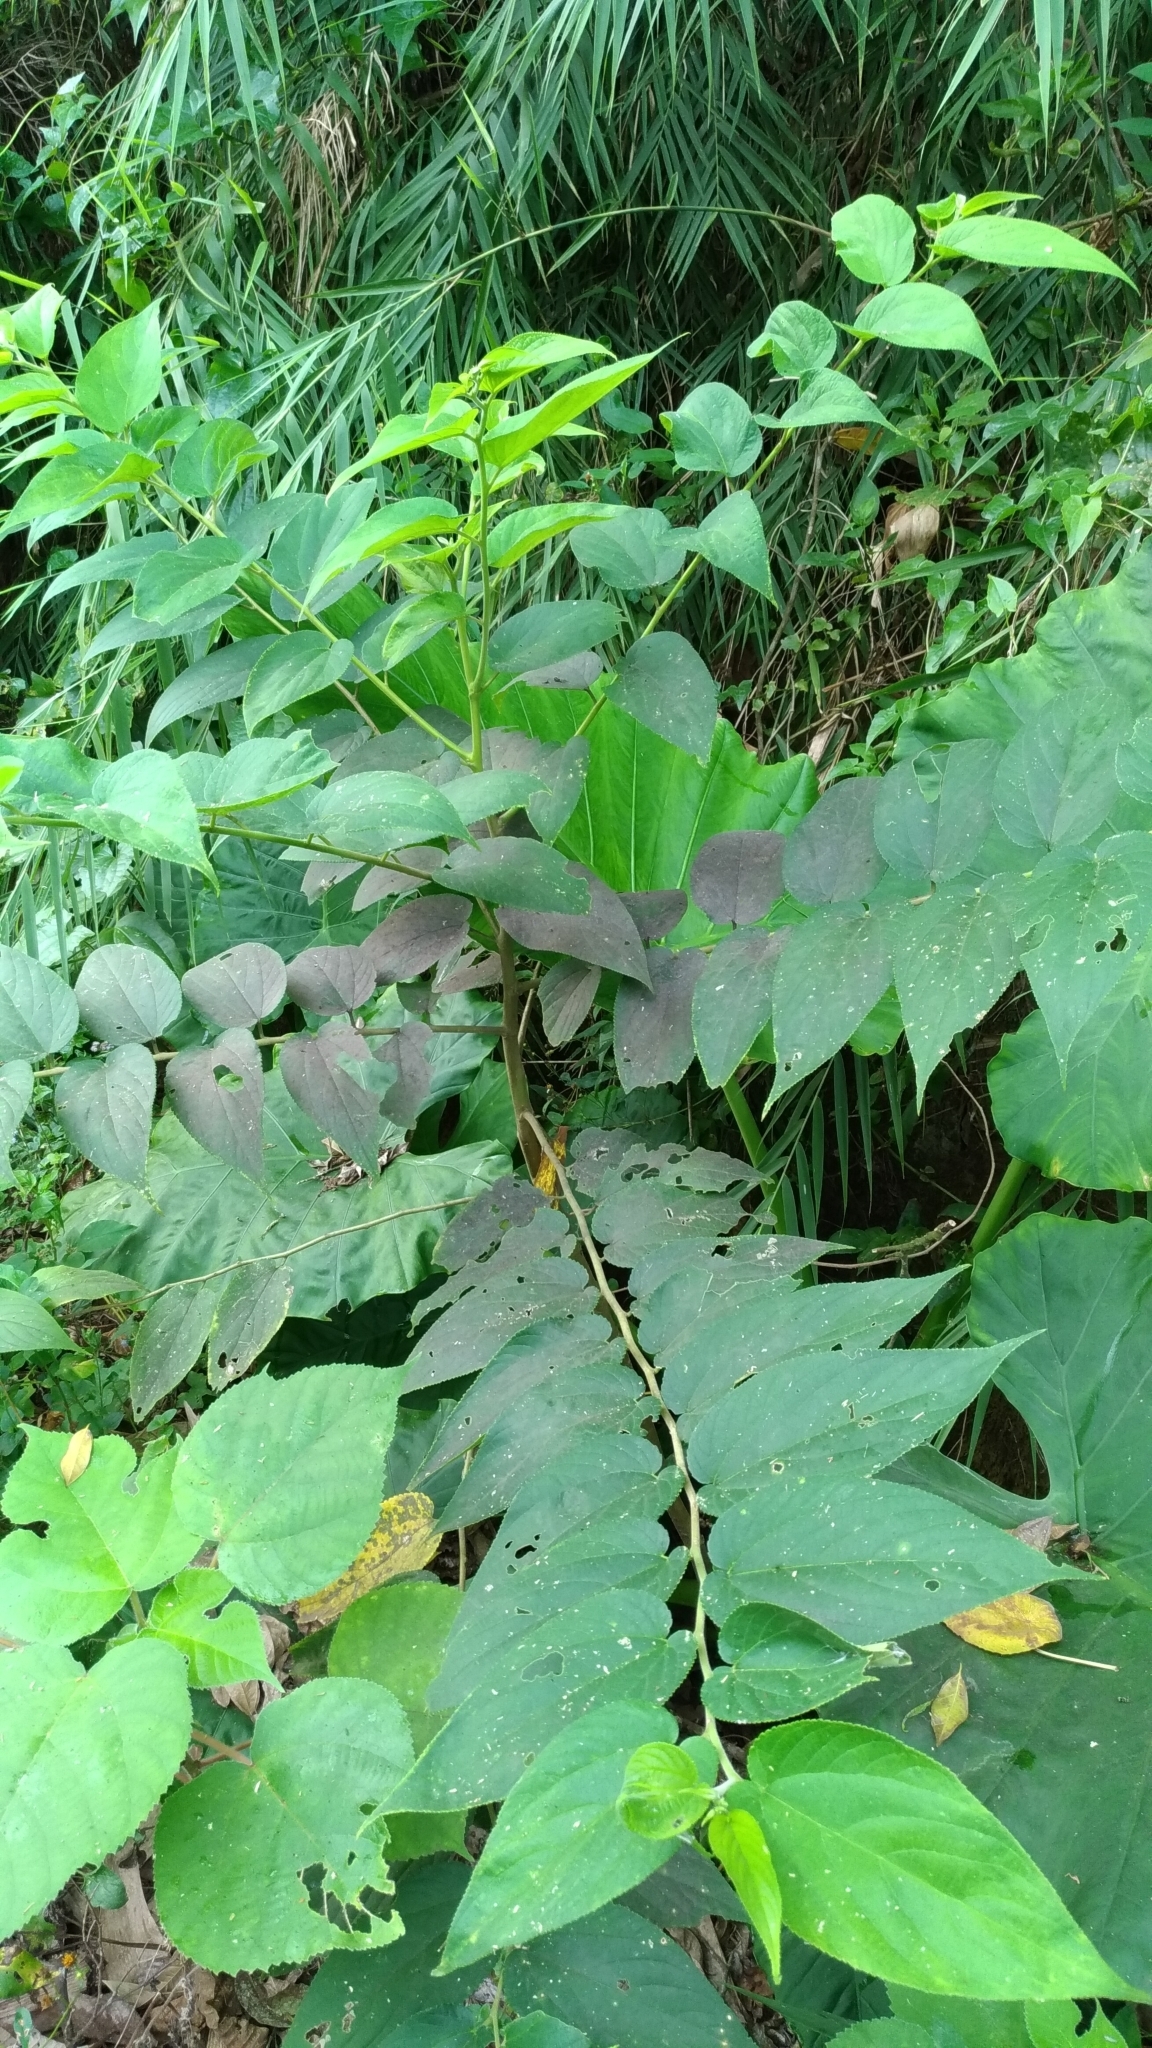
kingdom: Plantae
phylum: Tracheophyta
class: Magnoliopsida
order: Rosales
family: Cannabaceae
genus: Trema
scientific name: Trema orientale
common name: Indian charcoal tree
